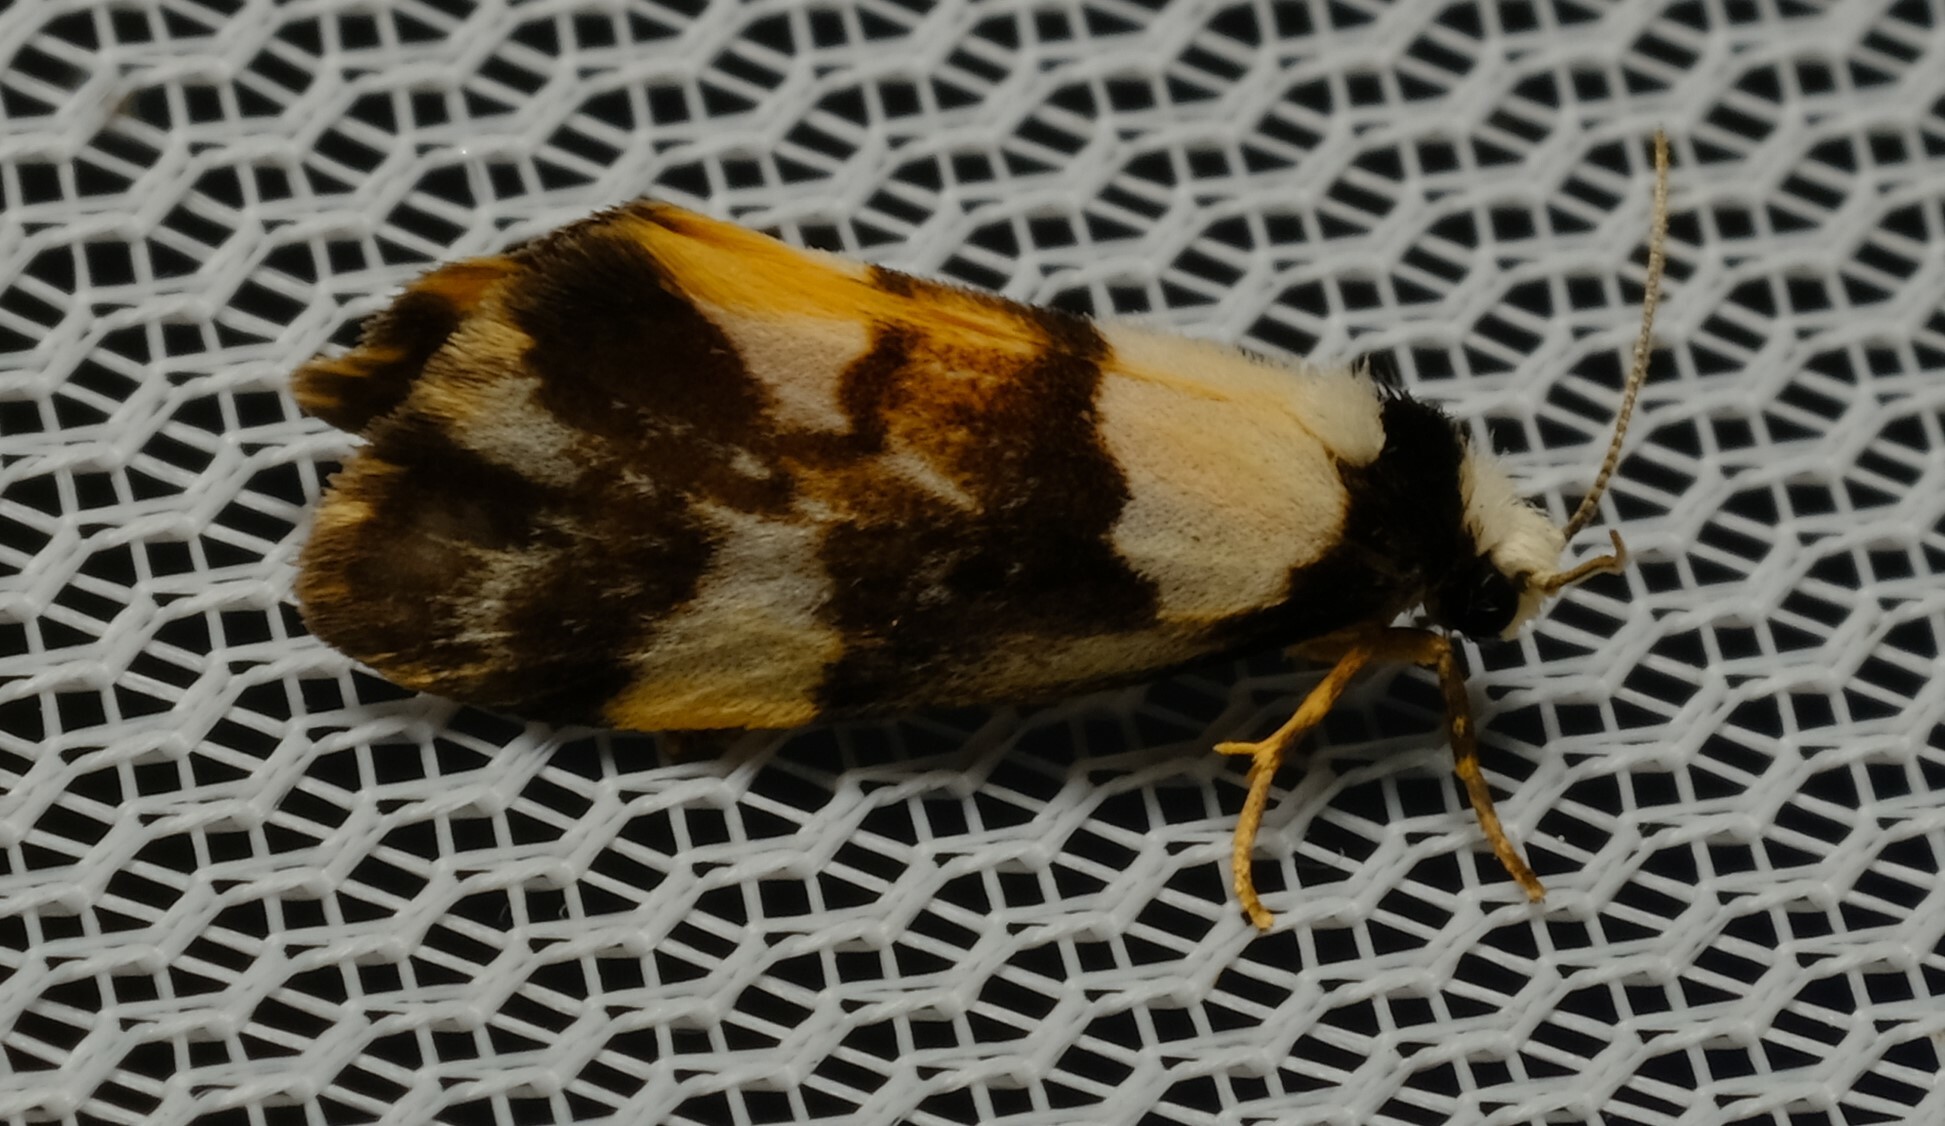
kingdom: Animalia
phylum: Arthropoda
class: Insecta
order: Lepidoptera
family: Erebidae
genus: Philenora
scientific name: Philenora elegans
